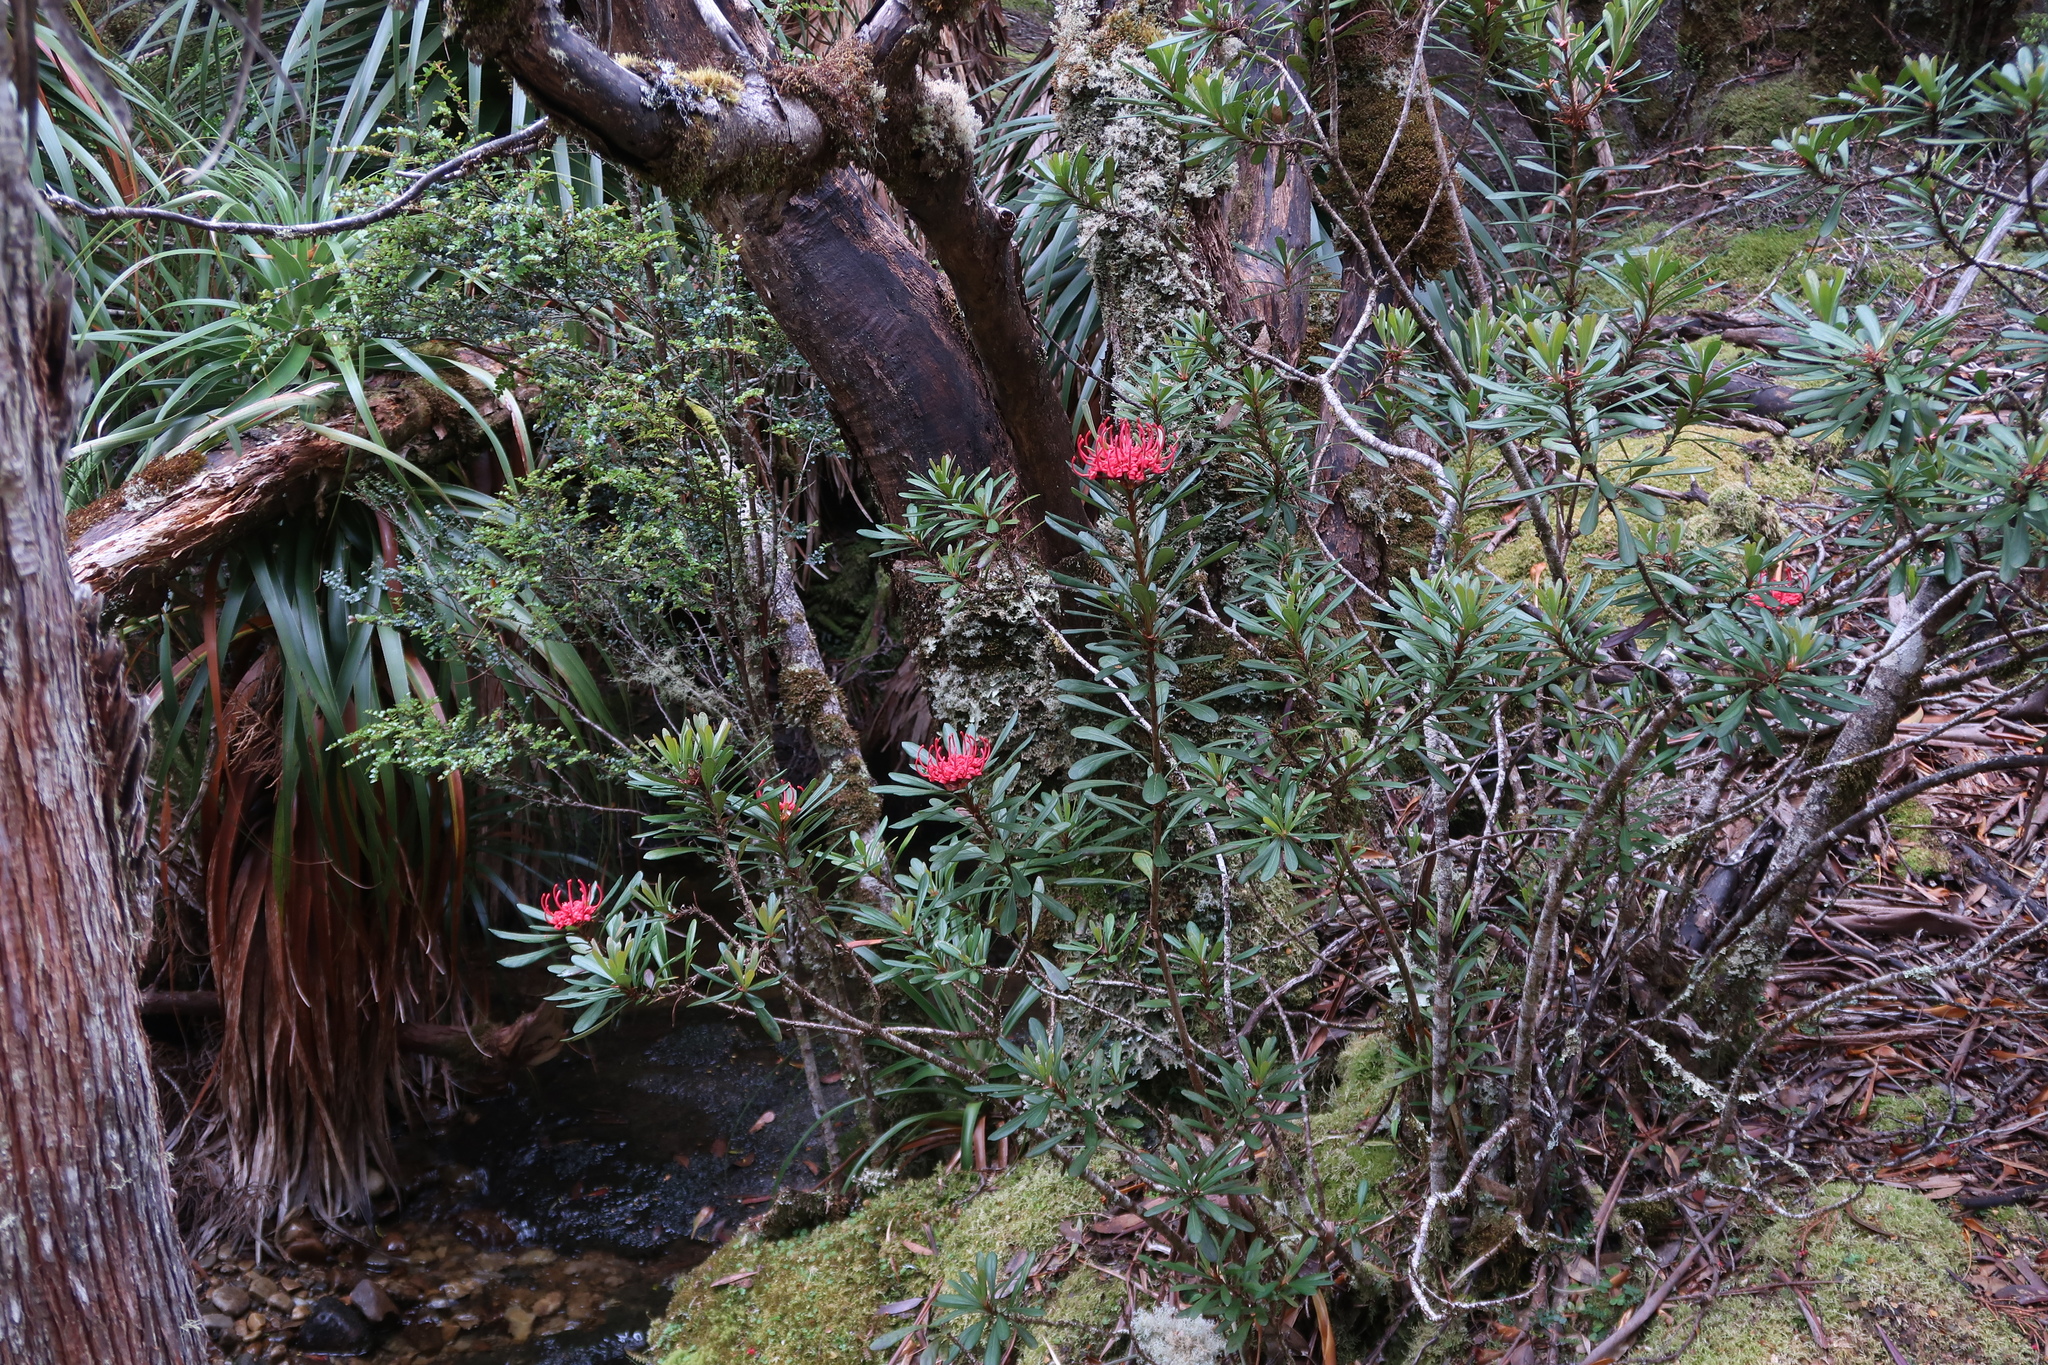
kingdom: Plantae
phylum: Tracheophyta
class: Magnoliopsida
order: Proteales
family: Proteaceae
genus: Telopea
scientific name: Telopea truncata
